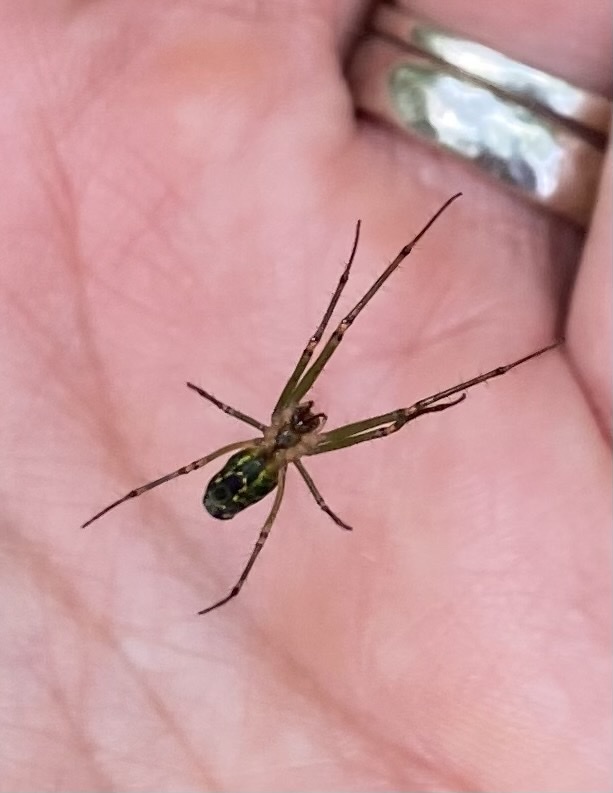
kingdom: Animalia
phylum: Arthropoda
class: Arachnida
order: Araneae
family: Tetragnathidae
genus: Leucauge
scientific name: Leucauge venusta
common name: Longjawed orb weavers
